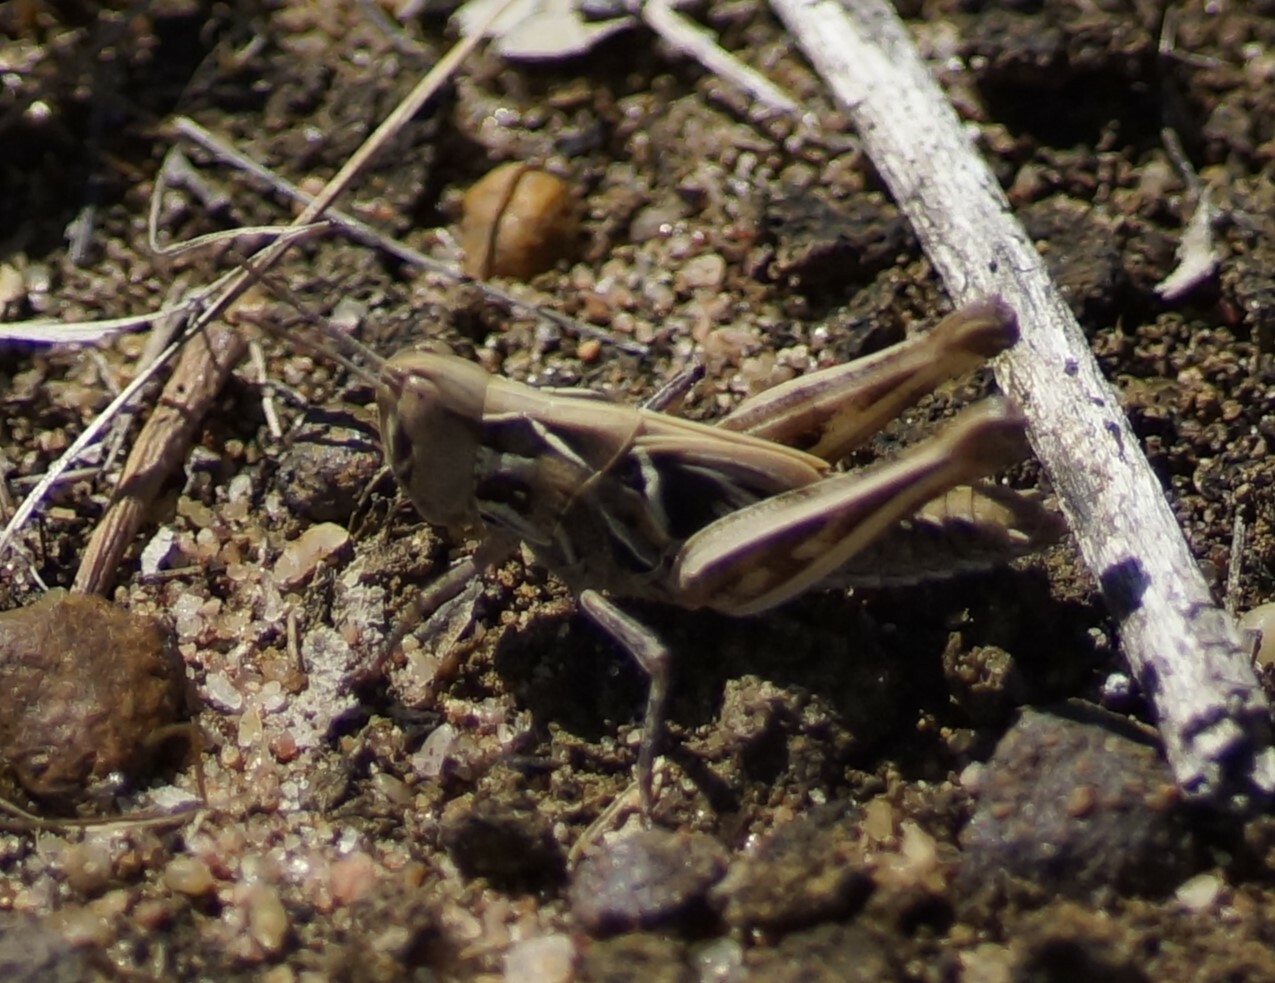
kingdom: Animalia
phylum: Arthropoda
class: Insecta
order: Orthoptera
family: Acrididae
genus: Chortoicetes
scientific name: Chortoicetes terminifera
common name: Australian plague locust
